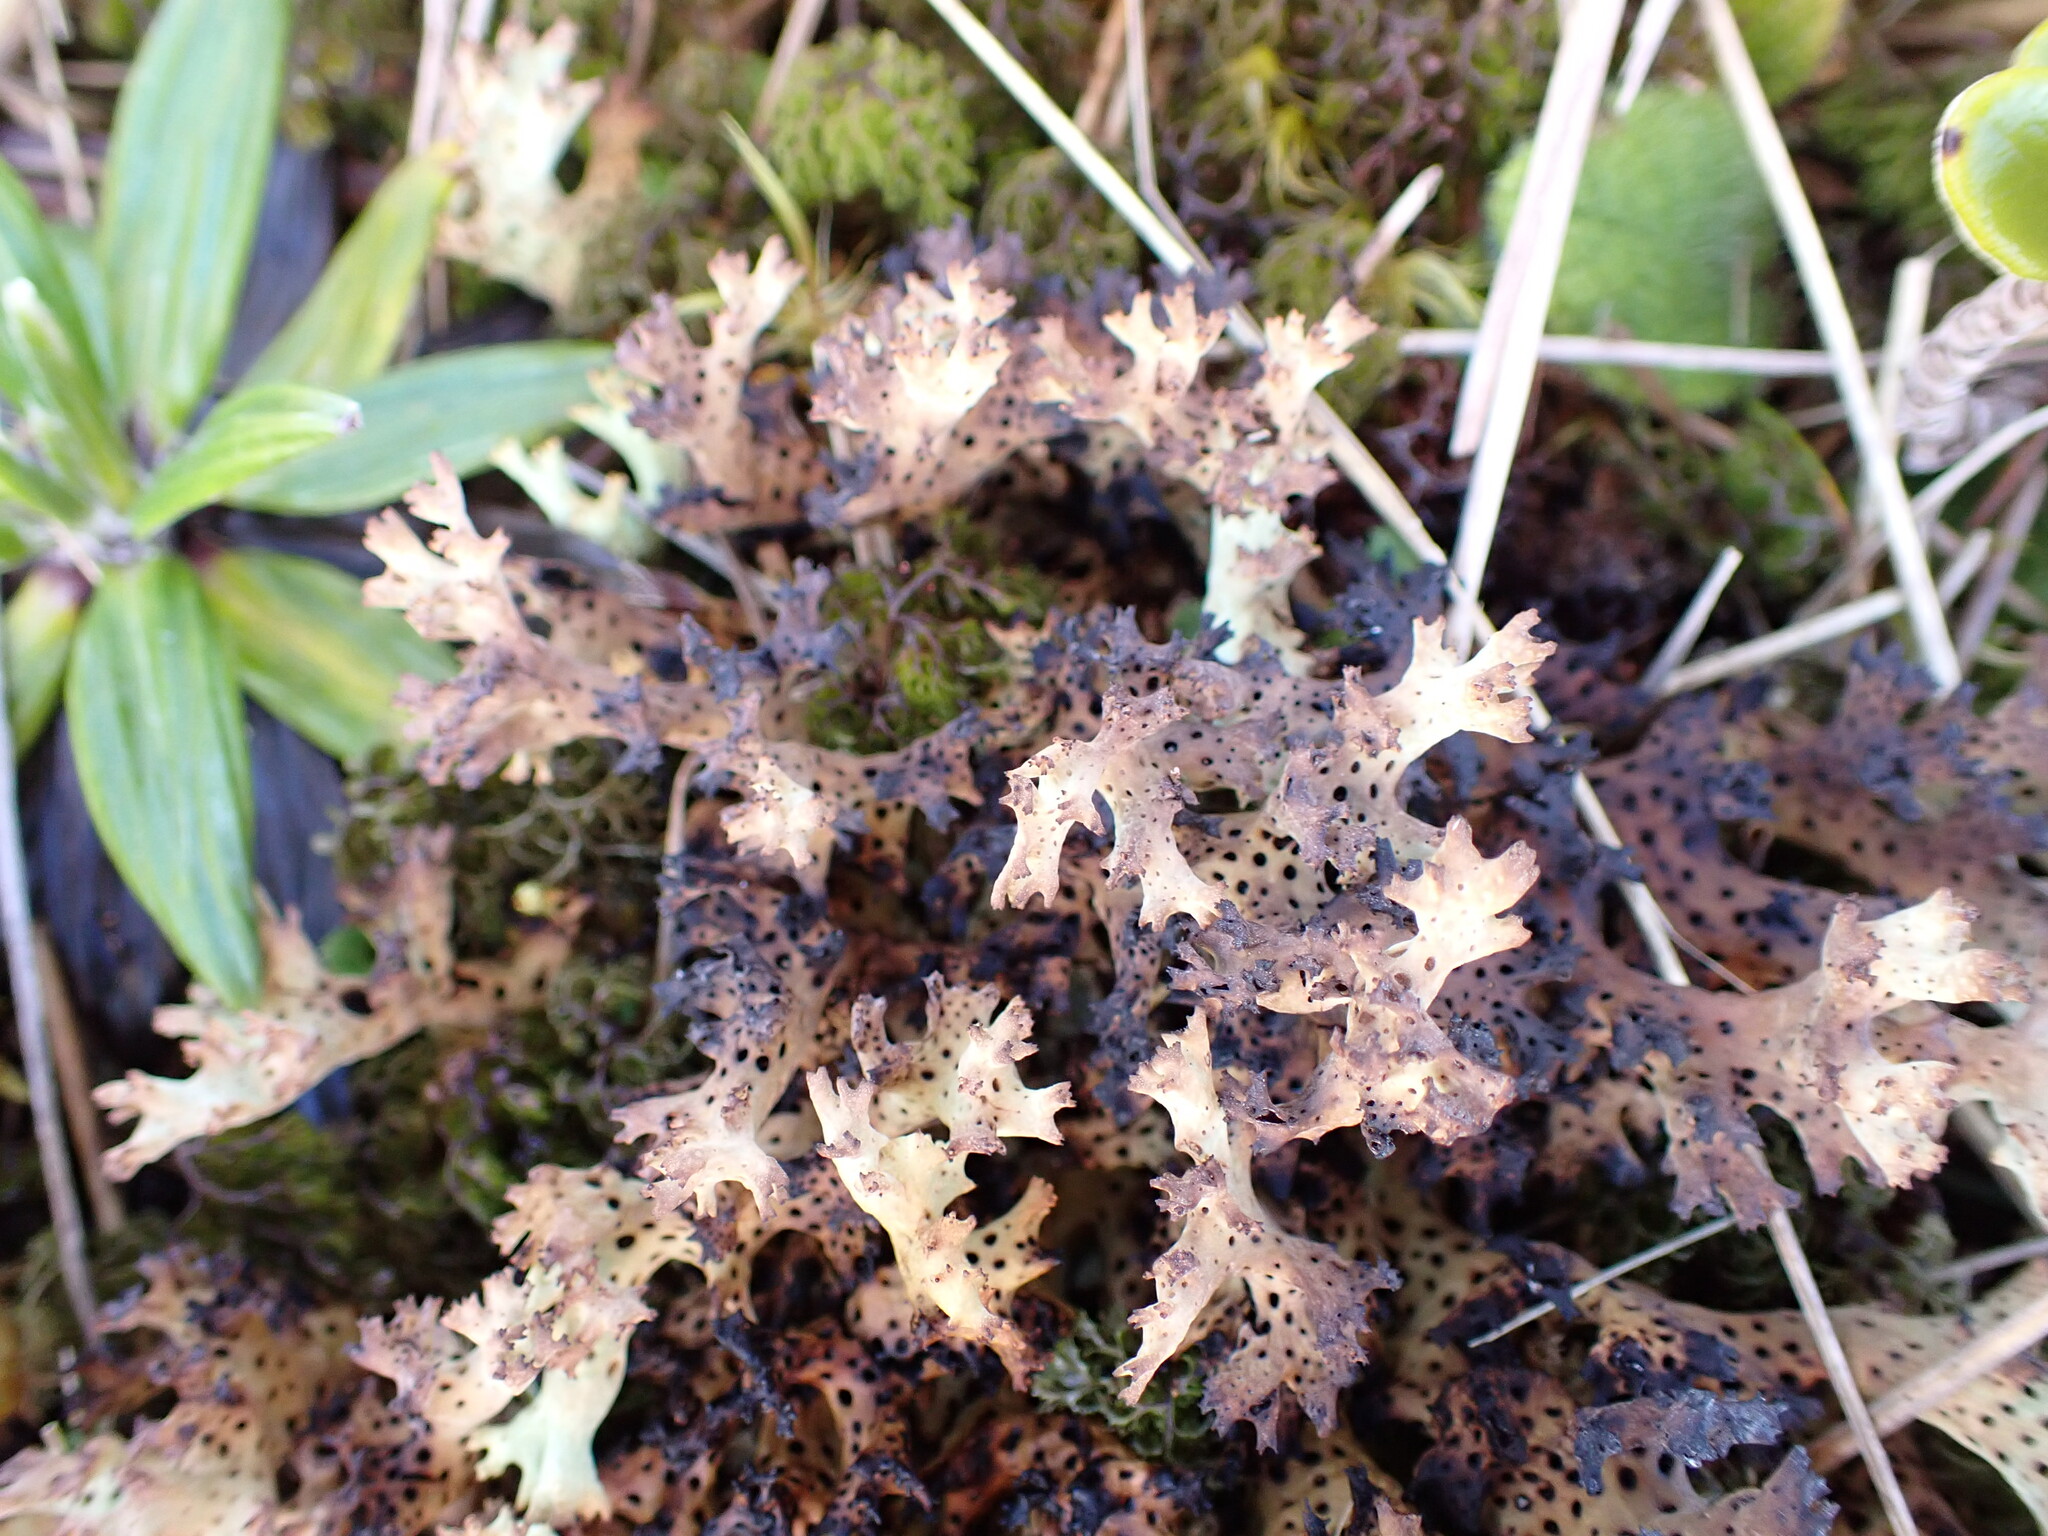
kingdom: Fungi
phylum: Ascomycota
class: Lecanoromycetes
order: Lecanorales
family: Cladoniaceae
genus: Rexiella
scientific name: Rexiella sullivanii
